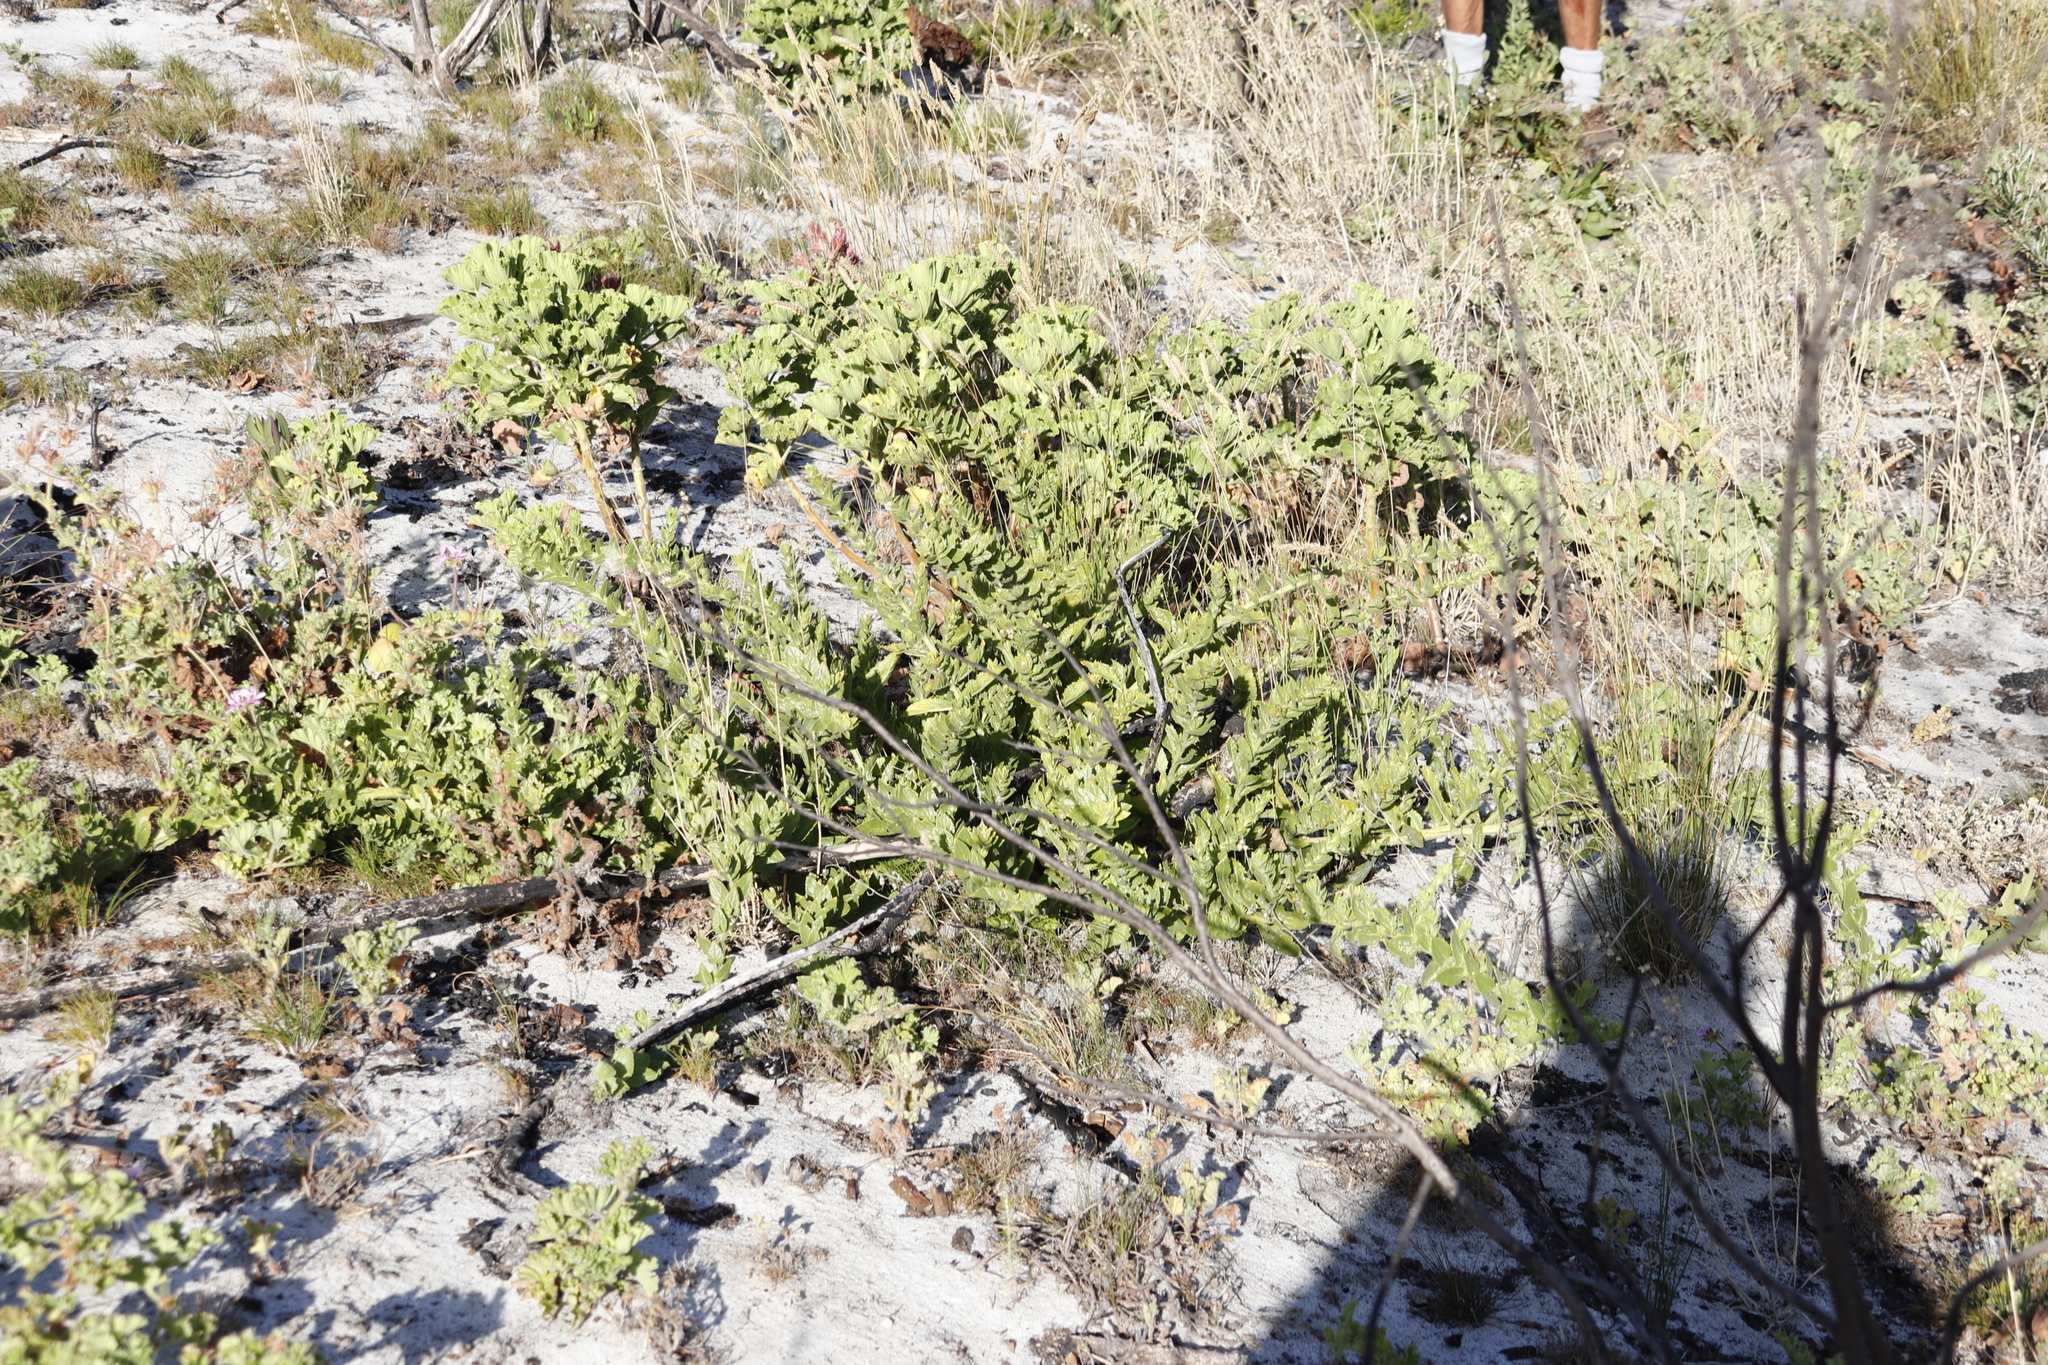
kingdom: Plantae
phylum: Tracheophyta
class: Magnoliopsida
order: Lamiales
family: Scrophulariaceae
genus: Oftia
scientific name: Oftia africana
